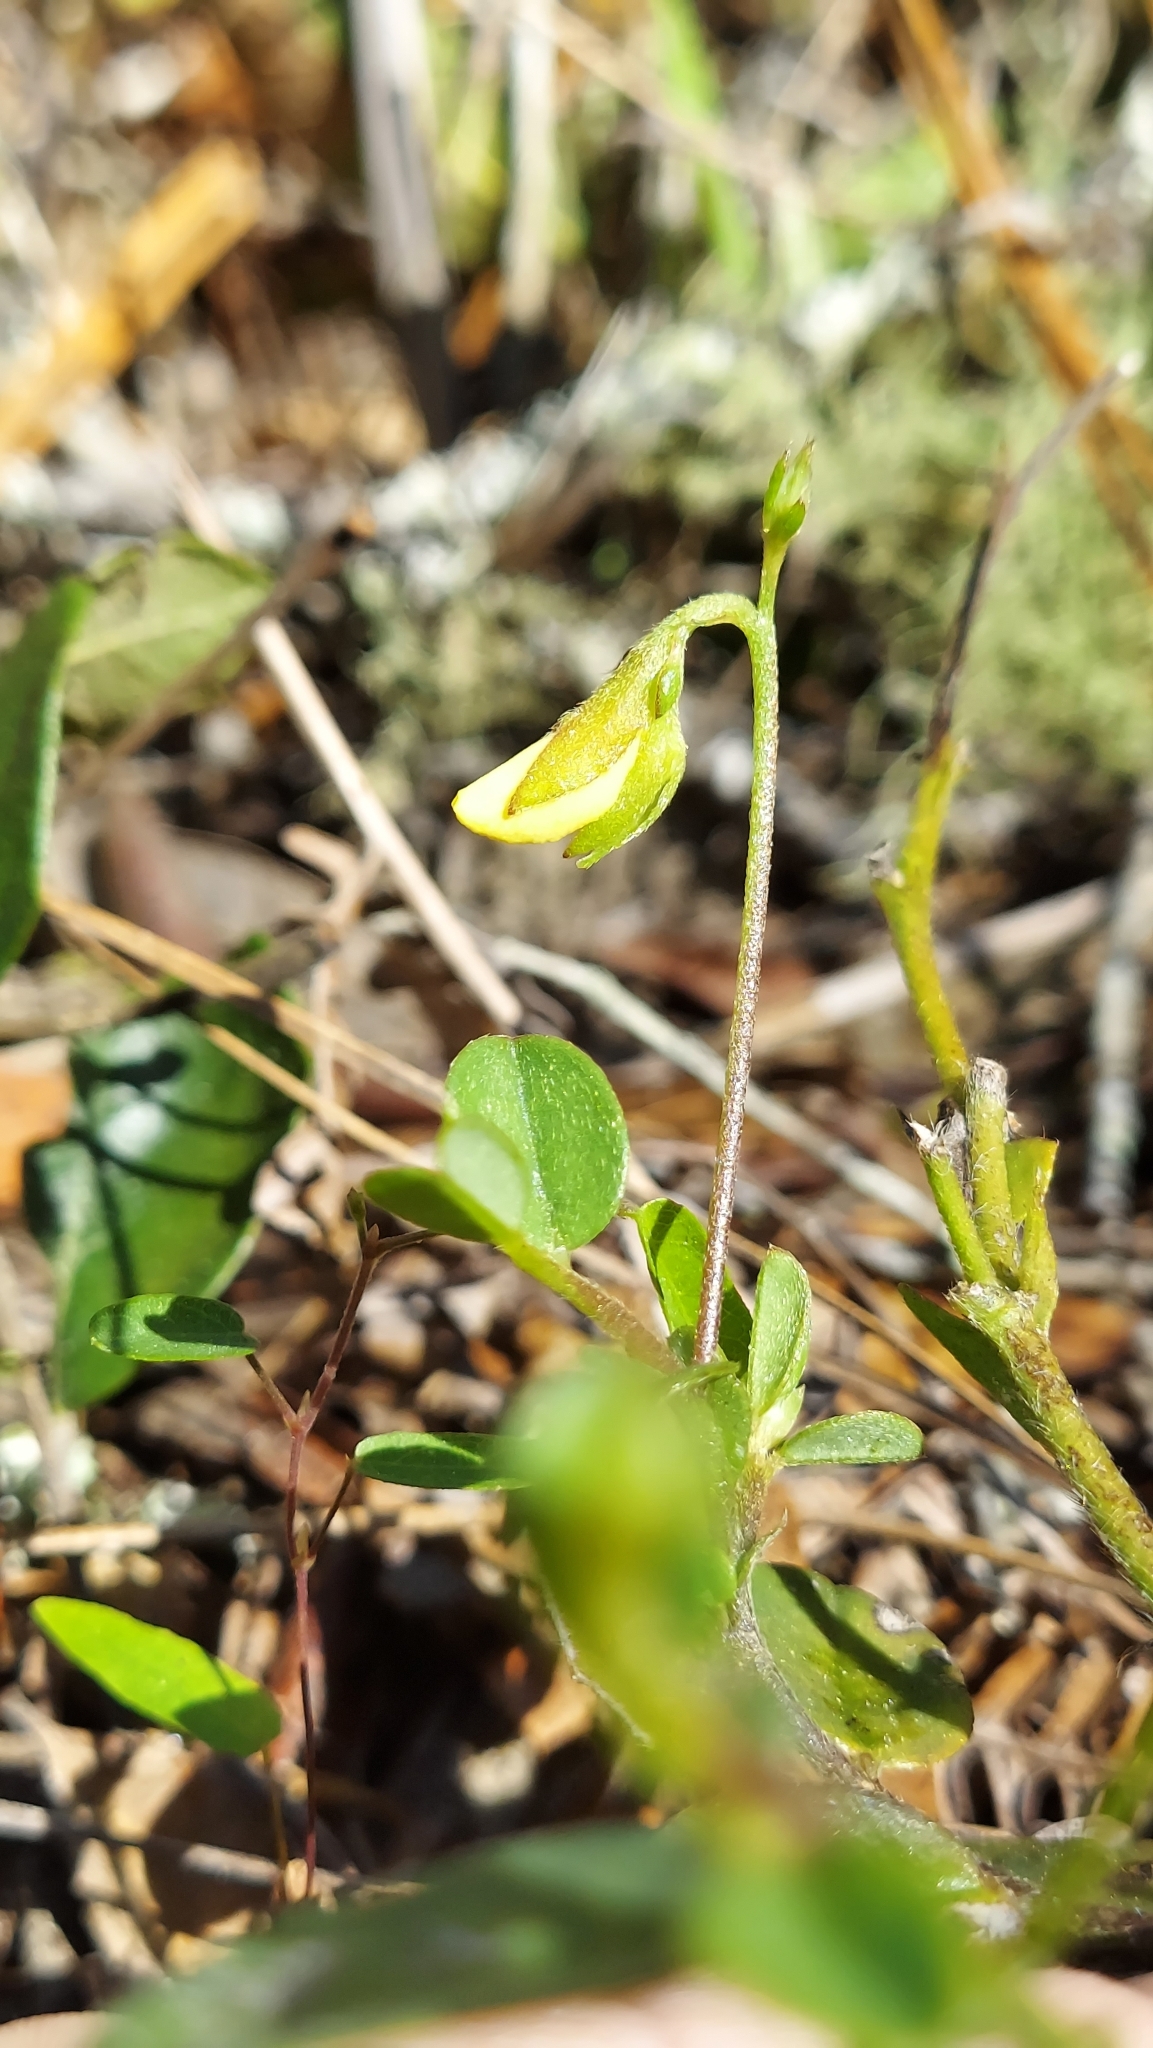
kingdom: Plantae
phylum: Tracheophyta
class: Magnoliopsida
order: Fabales
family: Fabaceae
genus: Crotalaria
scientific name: Crotalaria rotundifolia
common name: Prostrate rattlebox
